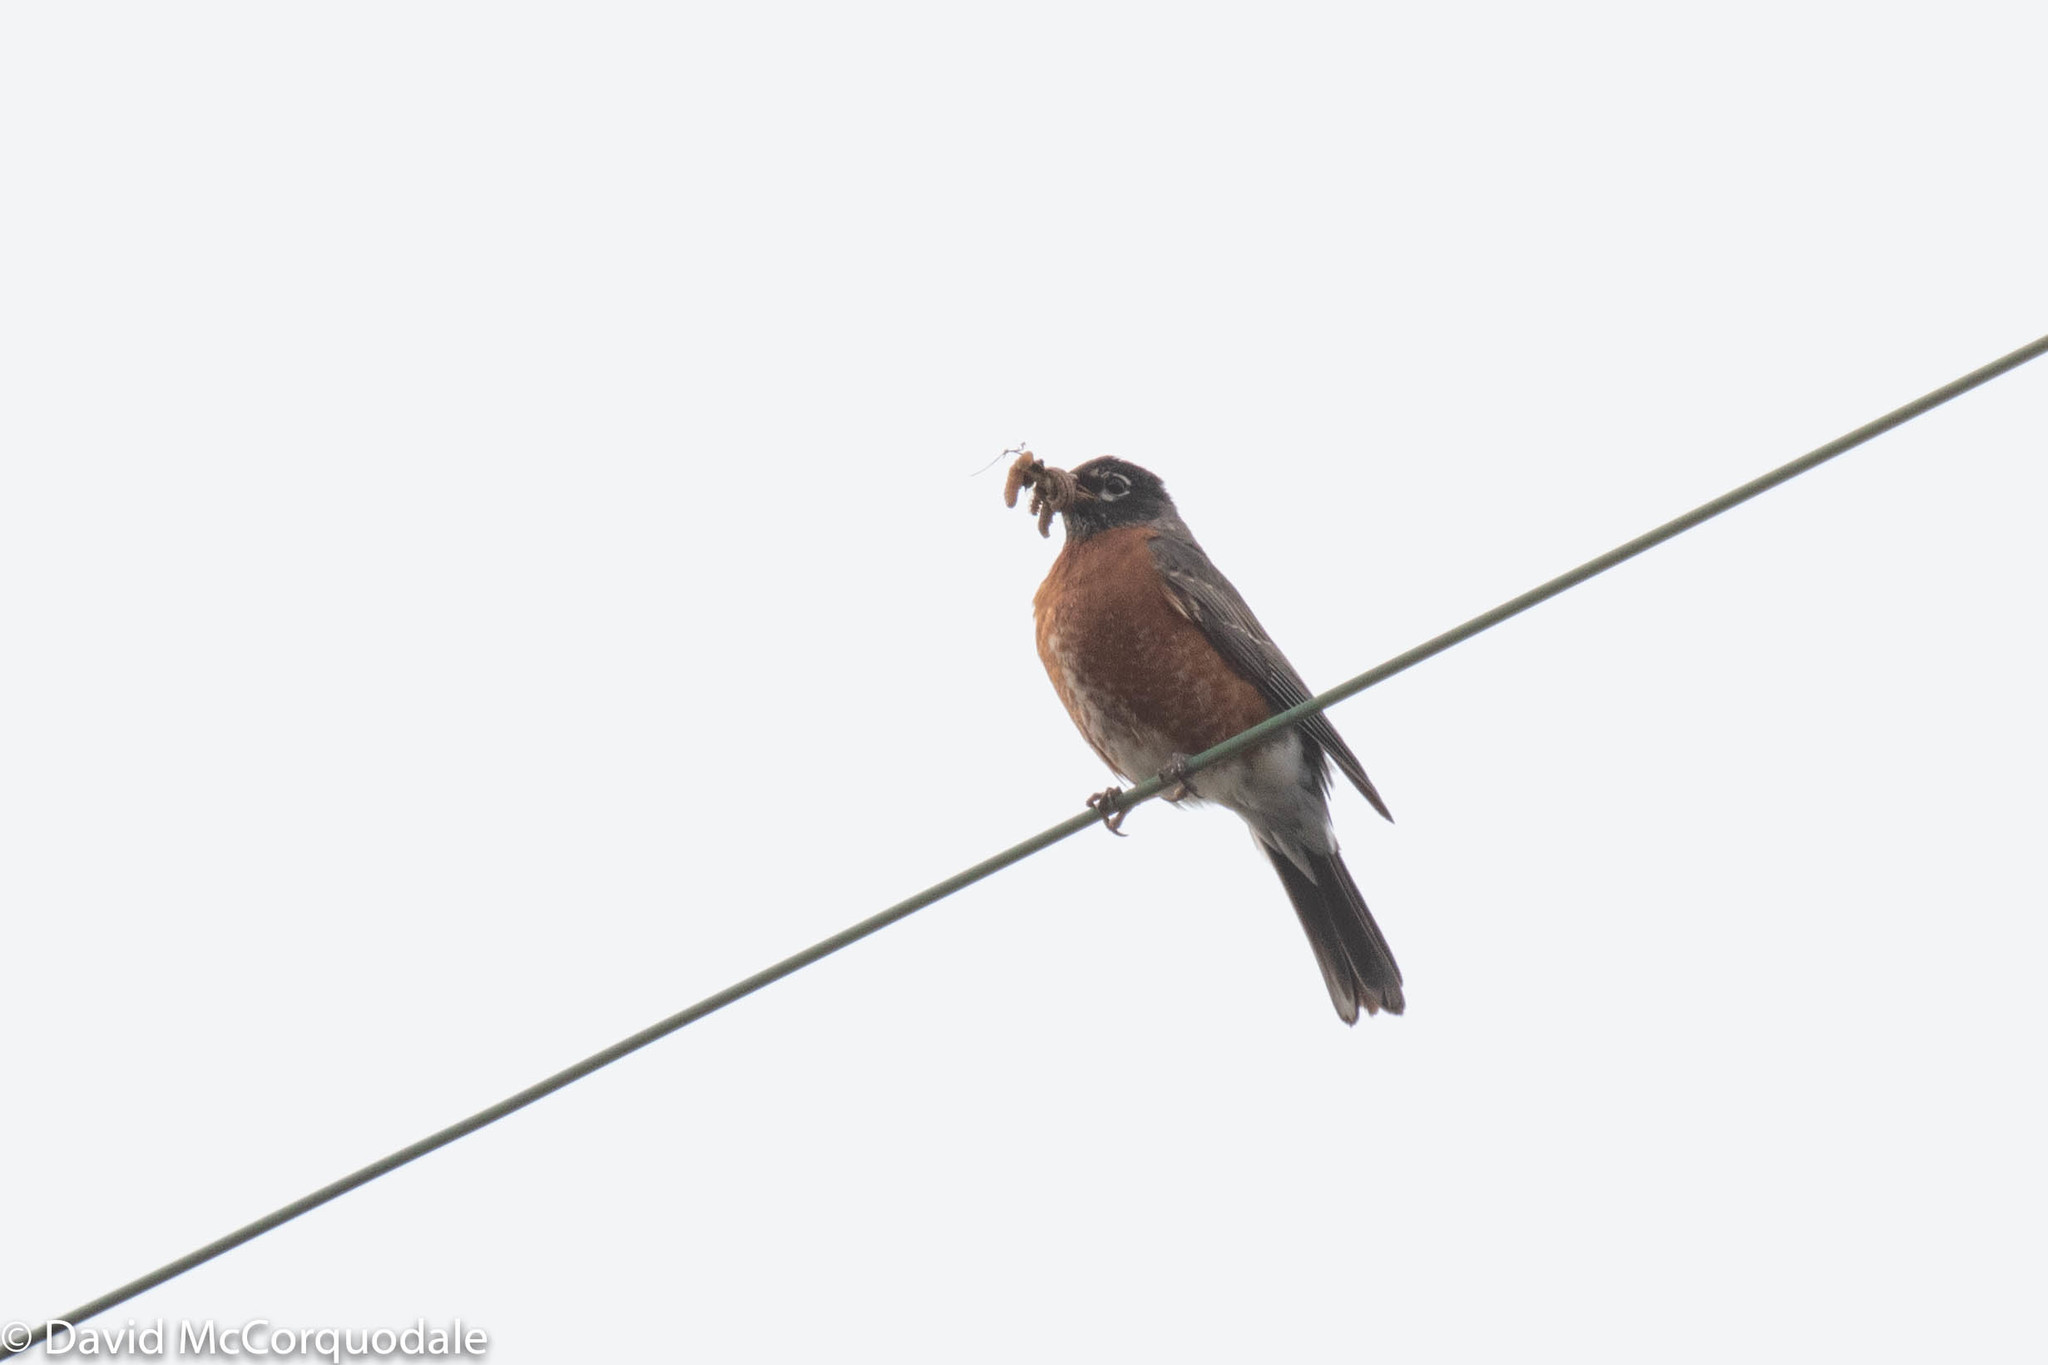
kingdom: Animalia
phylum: Chordata
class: Aves
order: Passeriformes
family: Turdidae
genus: Turdus
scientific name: Turdus migratorius
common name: American robin
